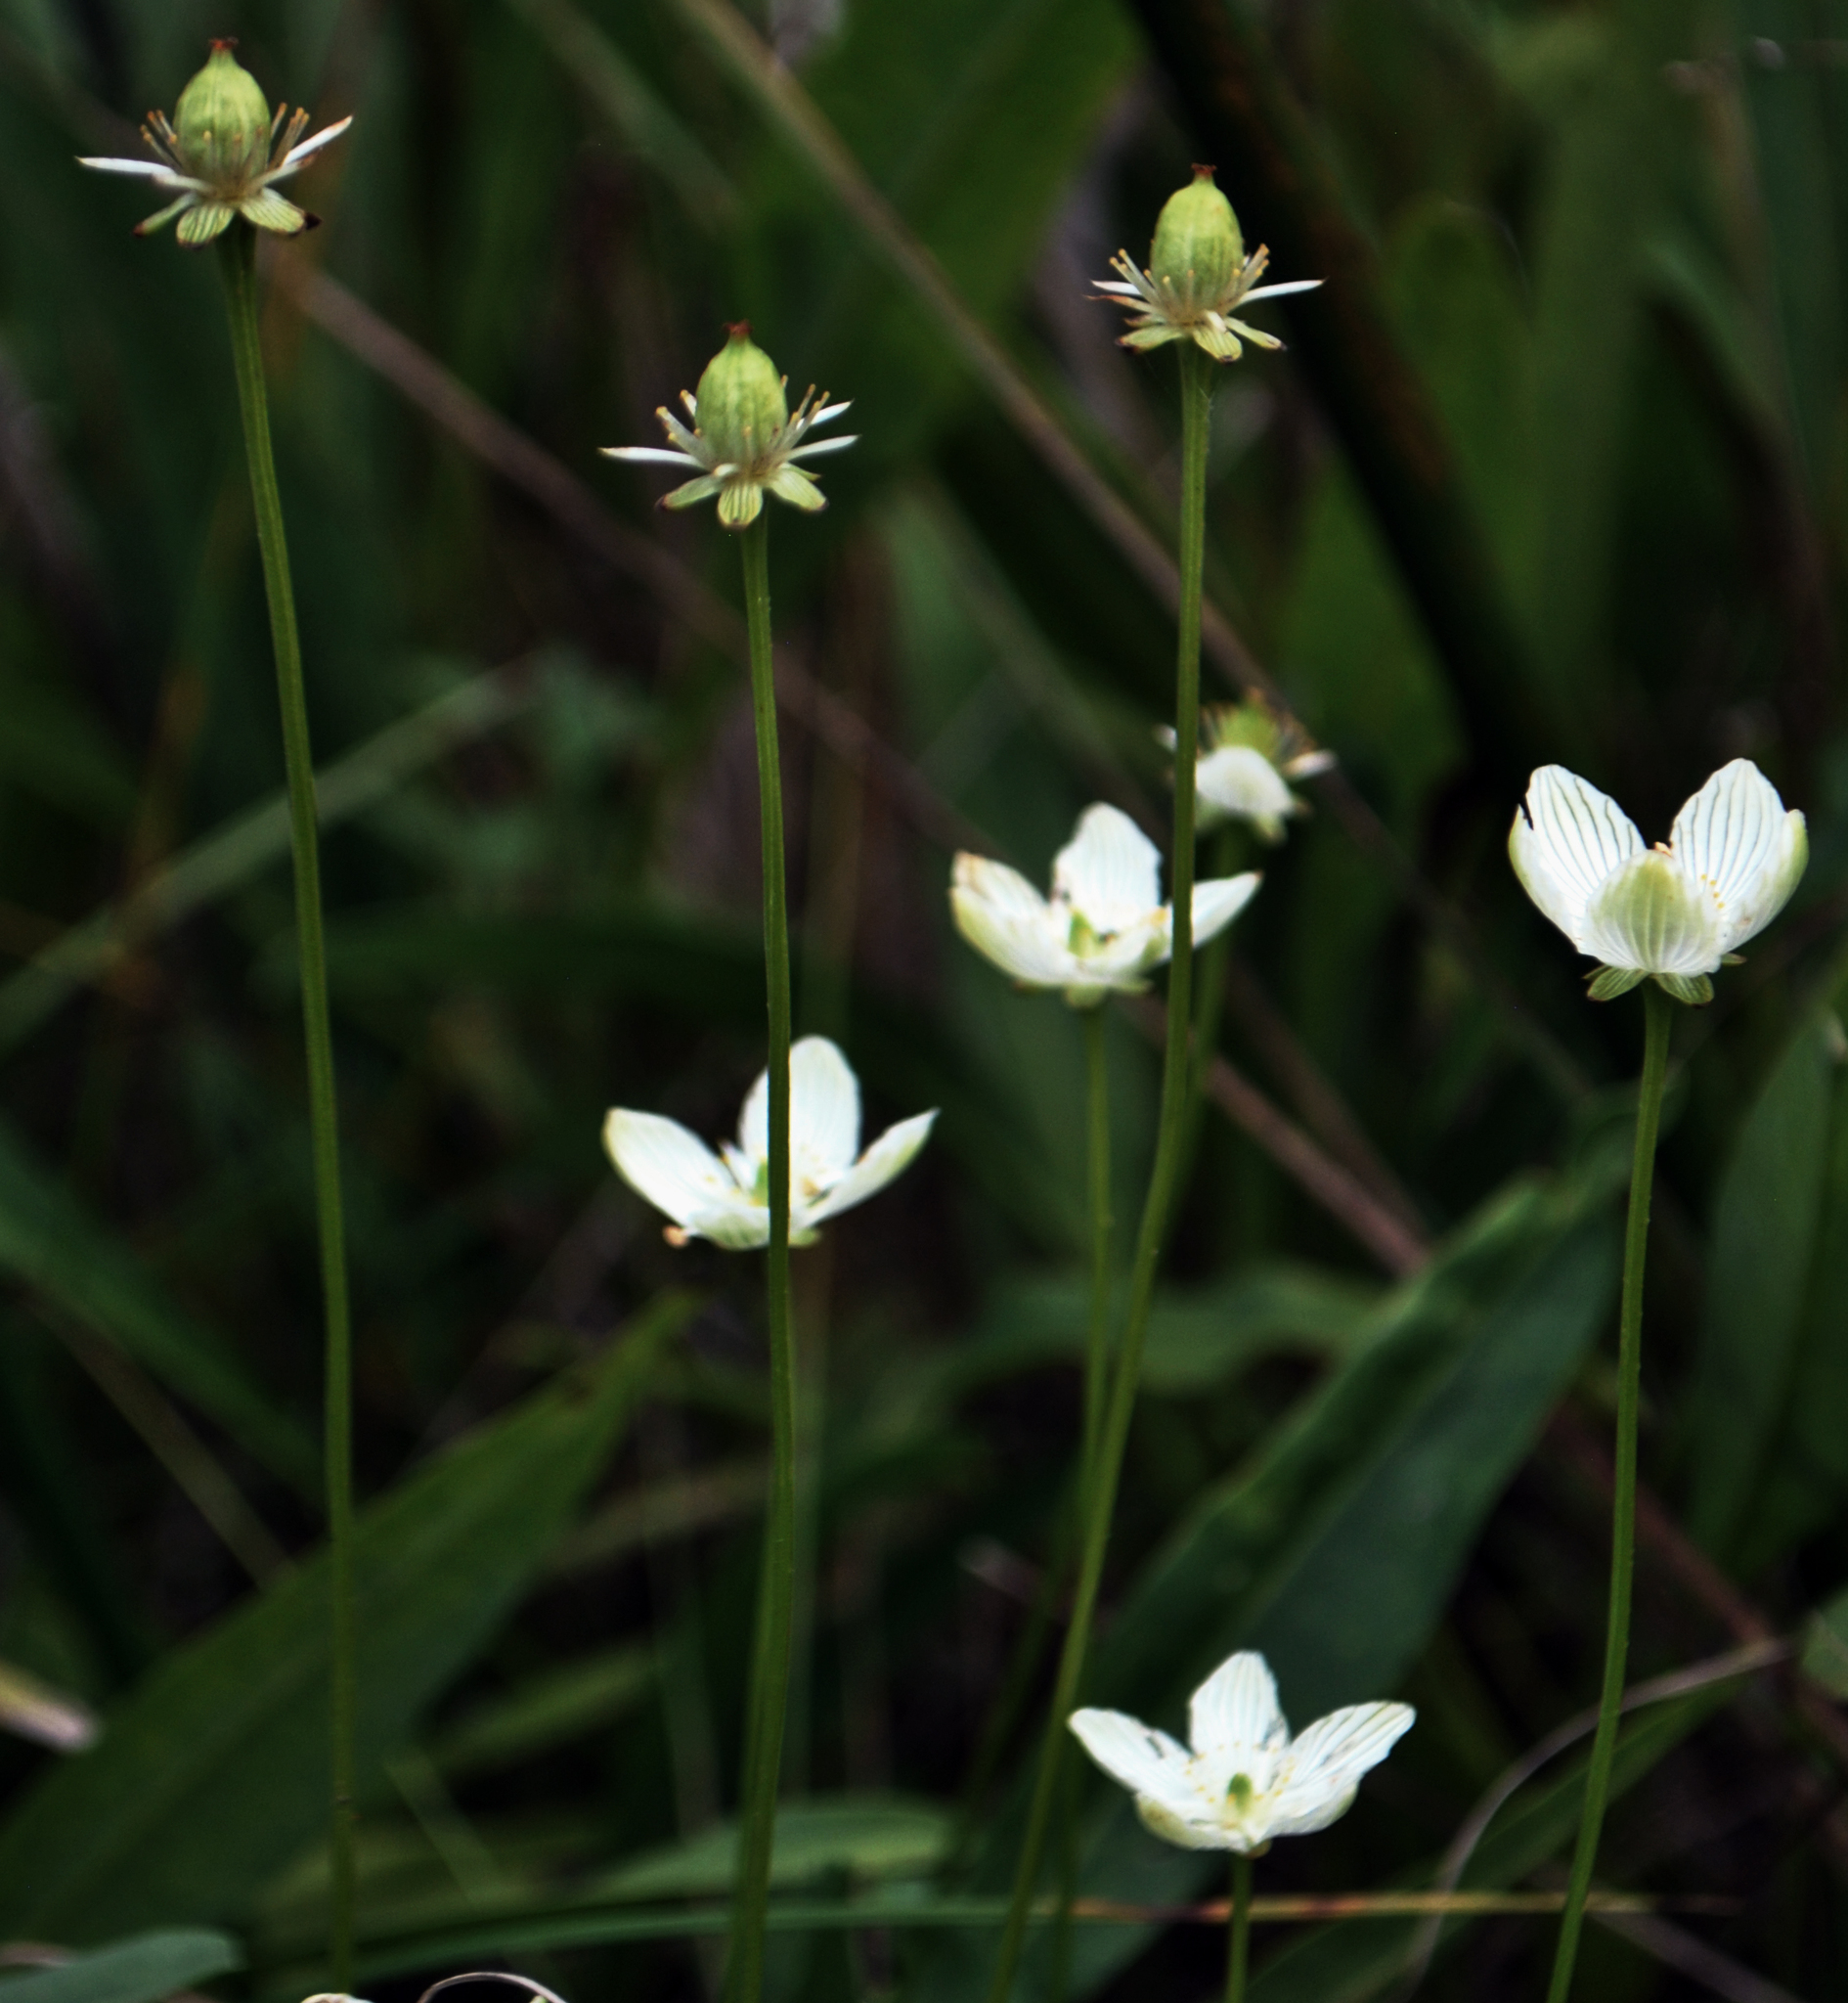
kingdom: Plantae
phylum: Tracheophyta
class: Magnoliopsida
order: Celastrales
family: Parnassiaceae
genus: Parnassia
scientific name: Parnassia glauca
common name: American grass-of-parnassus
